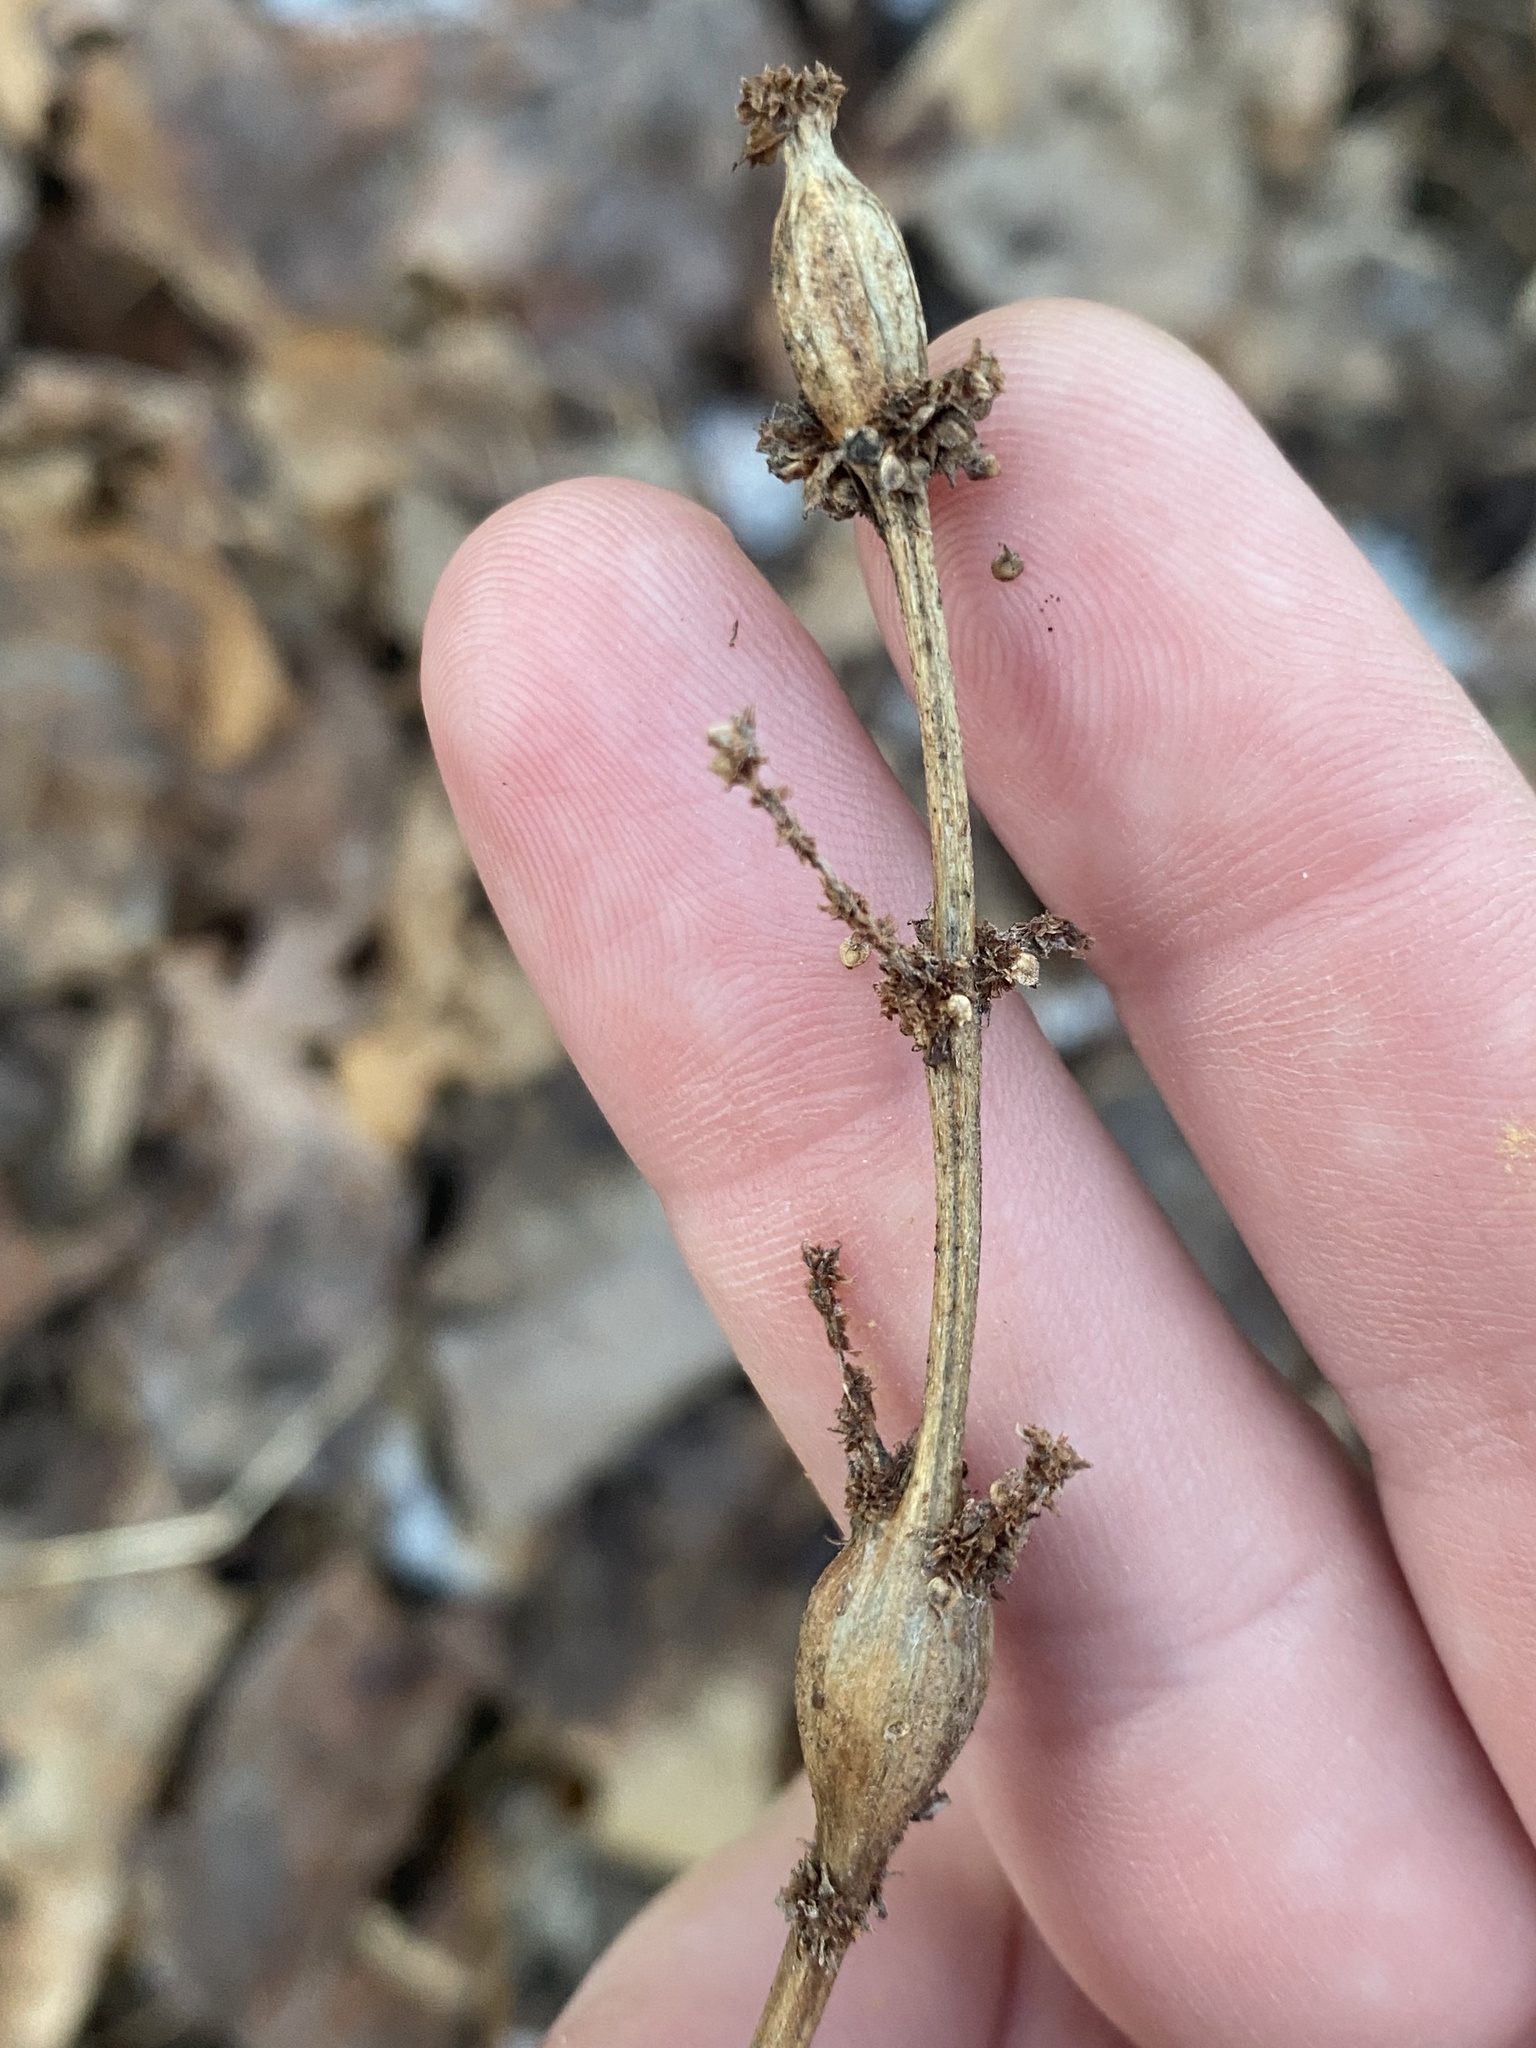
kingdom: Animalia
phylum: Arthropoda
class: Insecta
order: Diptera
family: Cecidomyiidae
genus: Neolasioptera
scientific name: Neolasioptera boehmeriae
